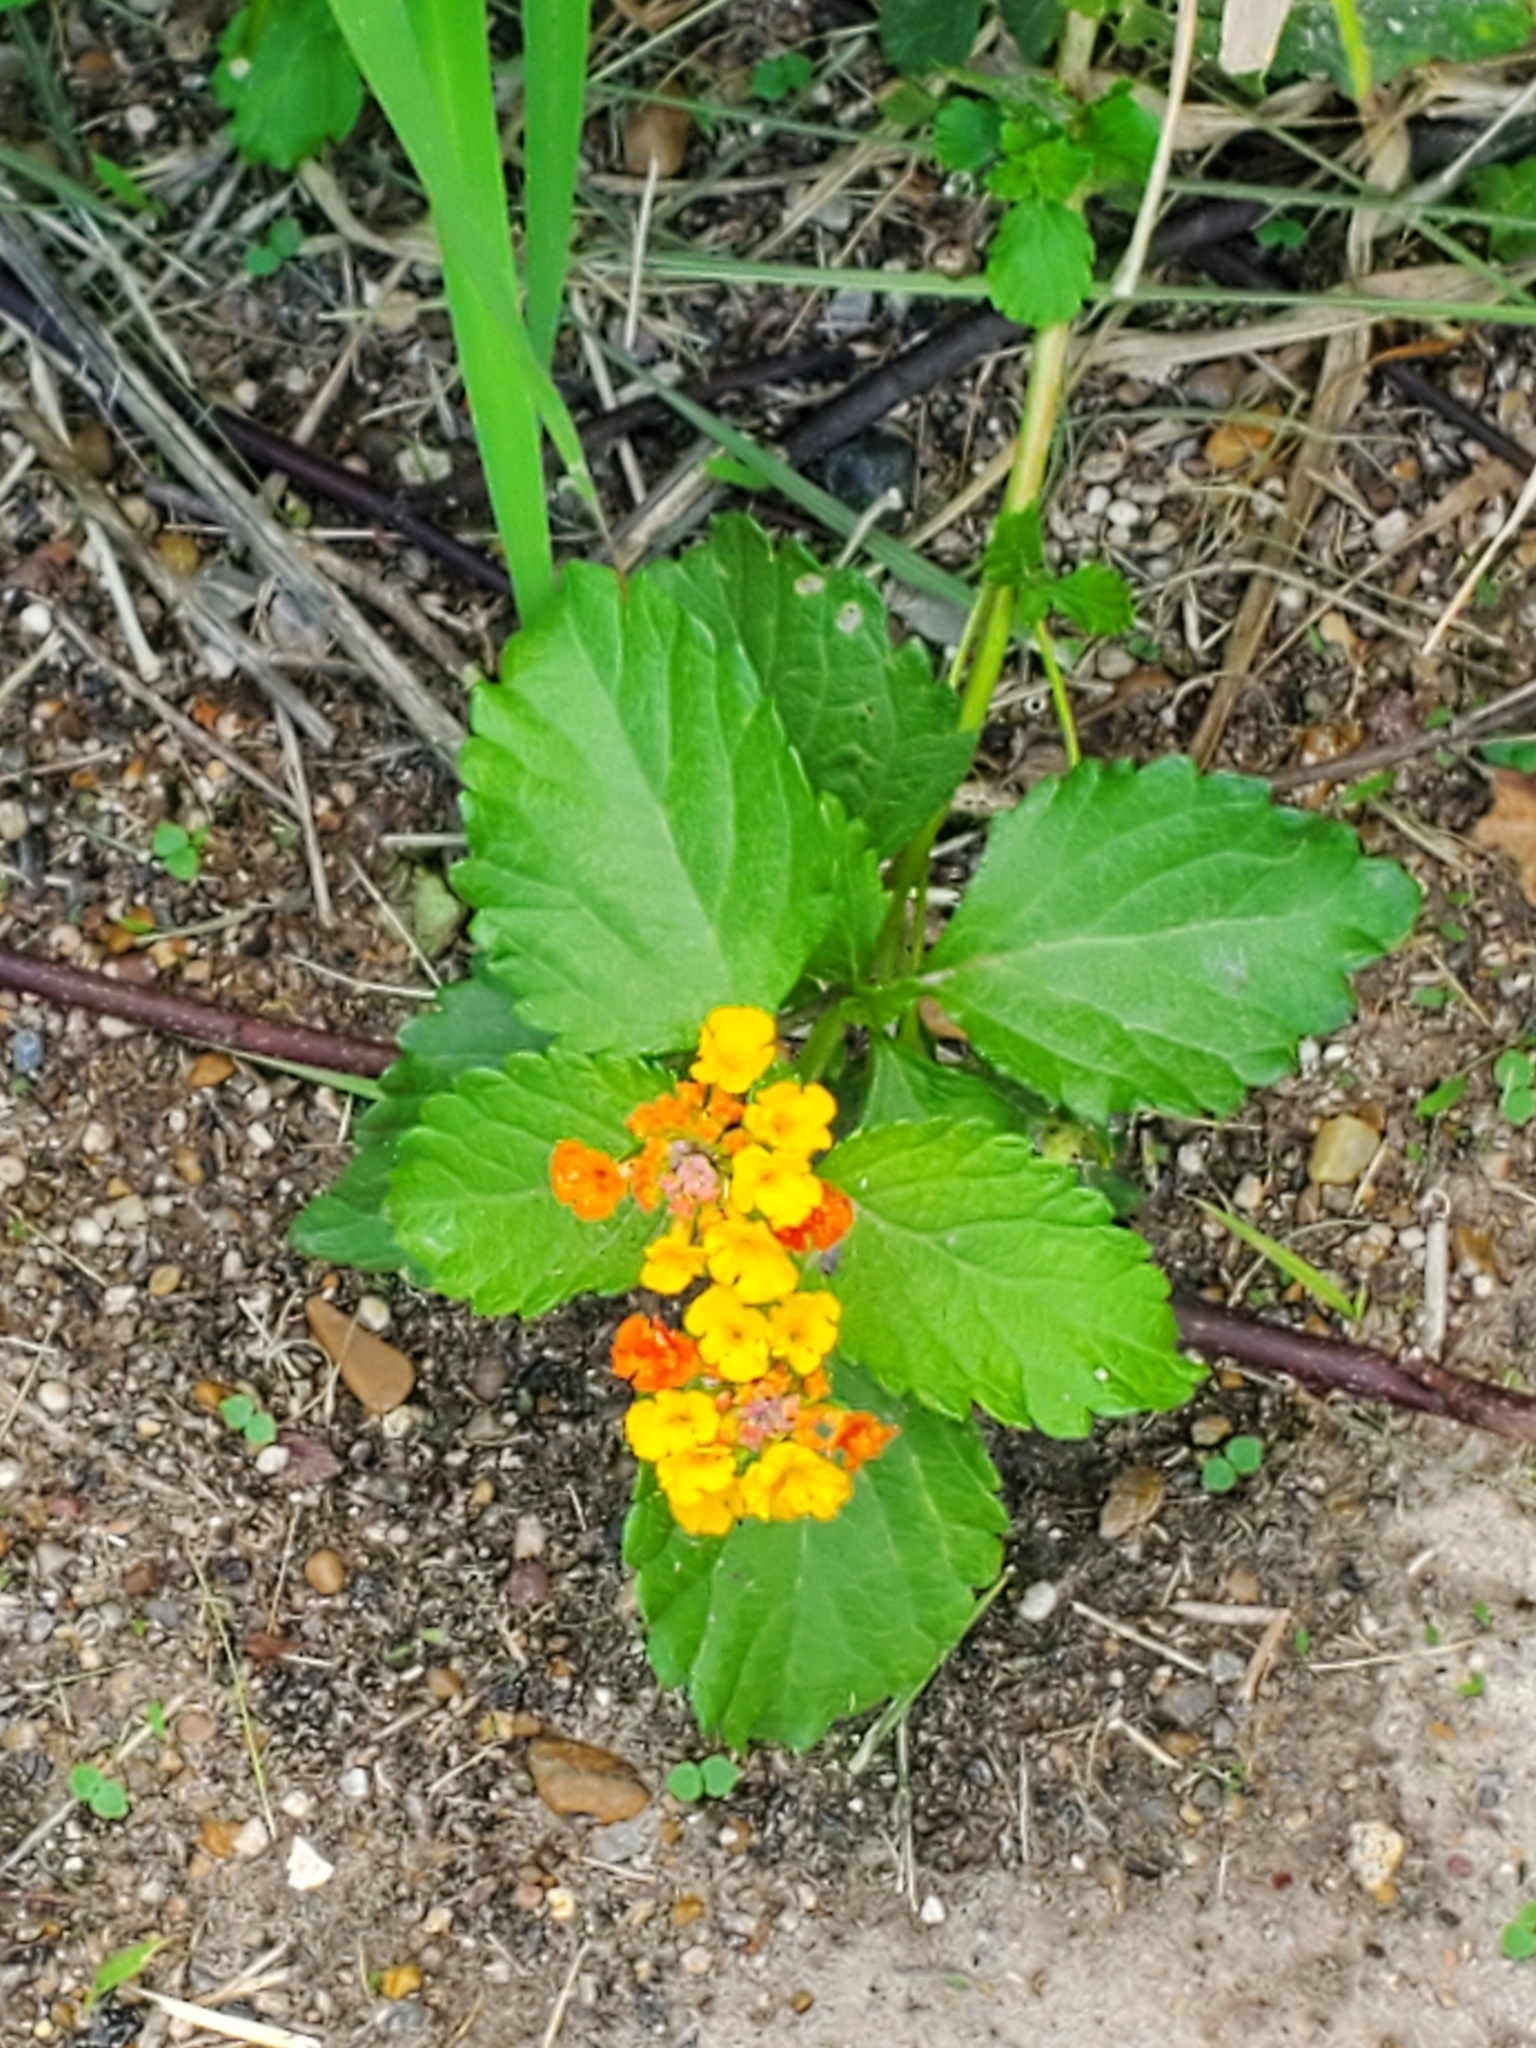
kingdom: Plantae
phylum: Tracheophyta
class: Magnoliopsida
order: Lamiales
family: Verbenaceae
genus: Lantana
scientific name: Lantana urticoides
